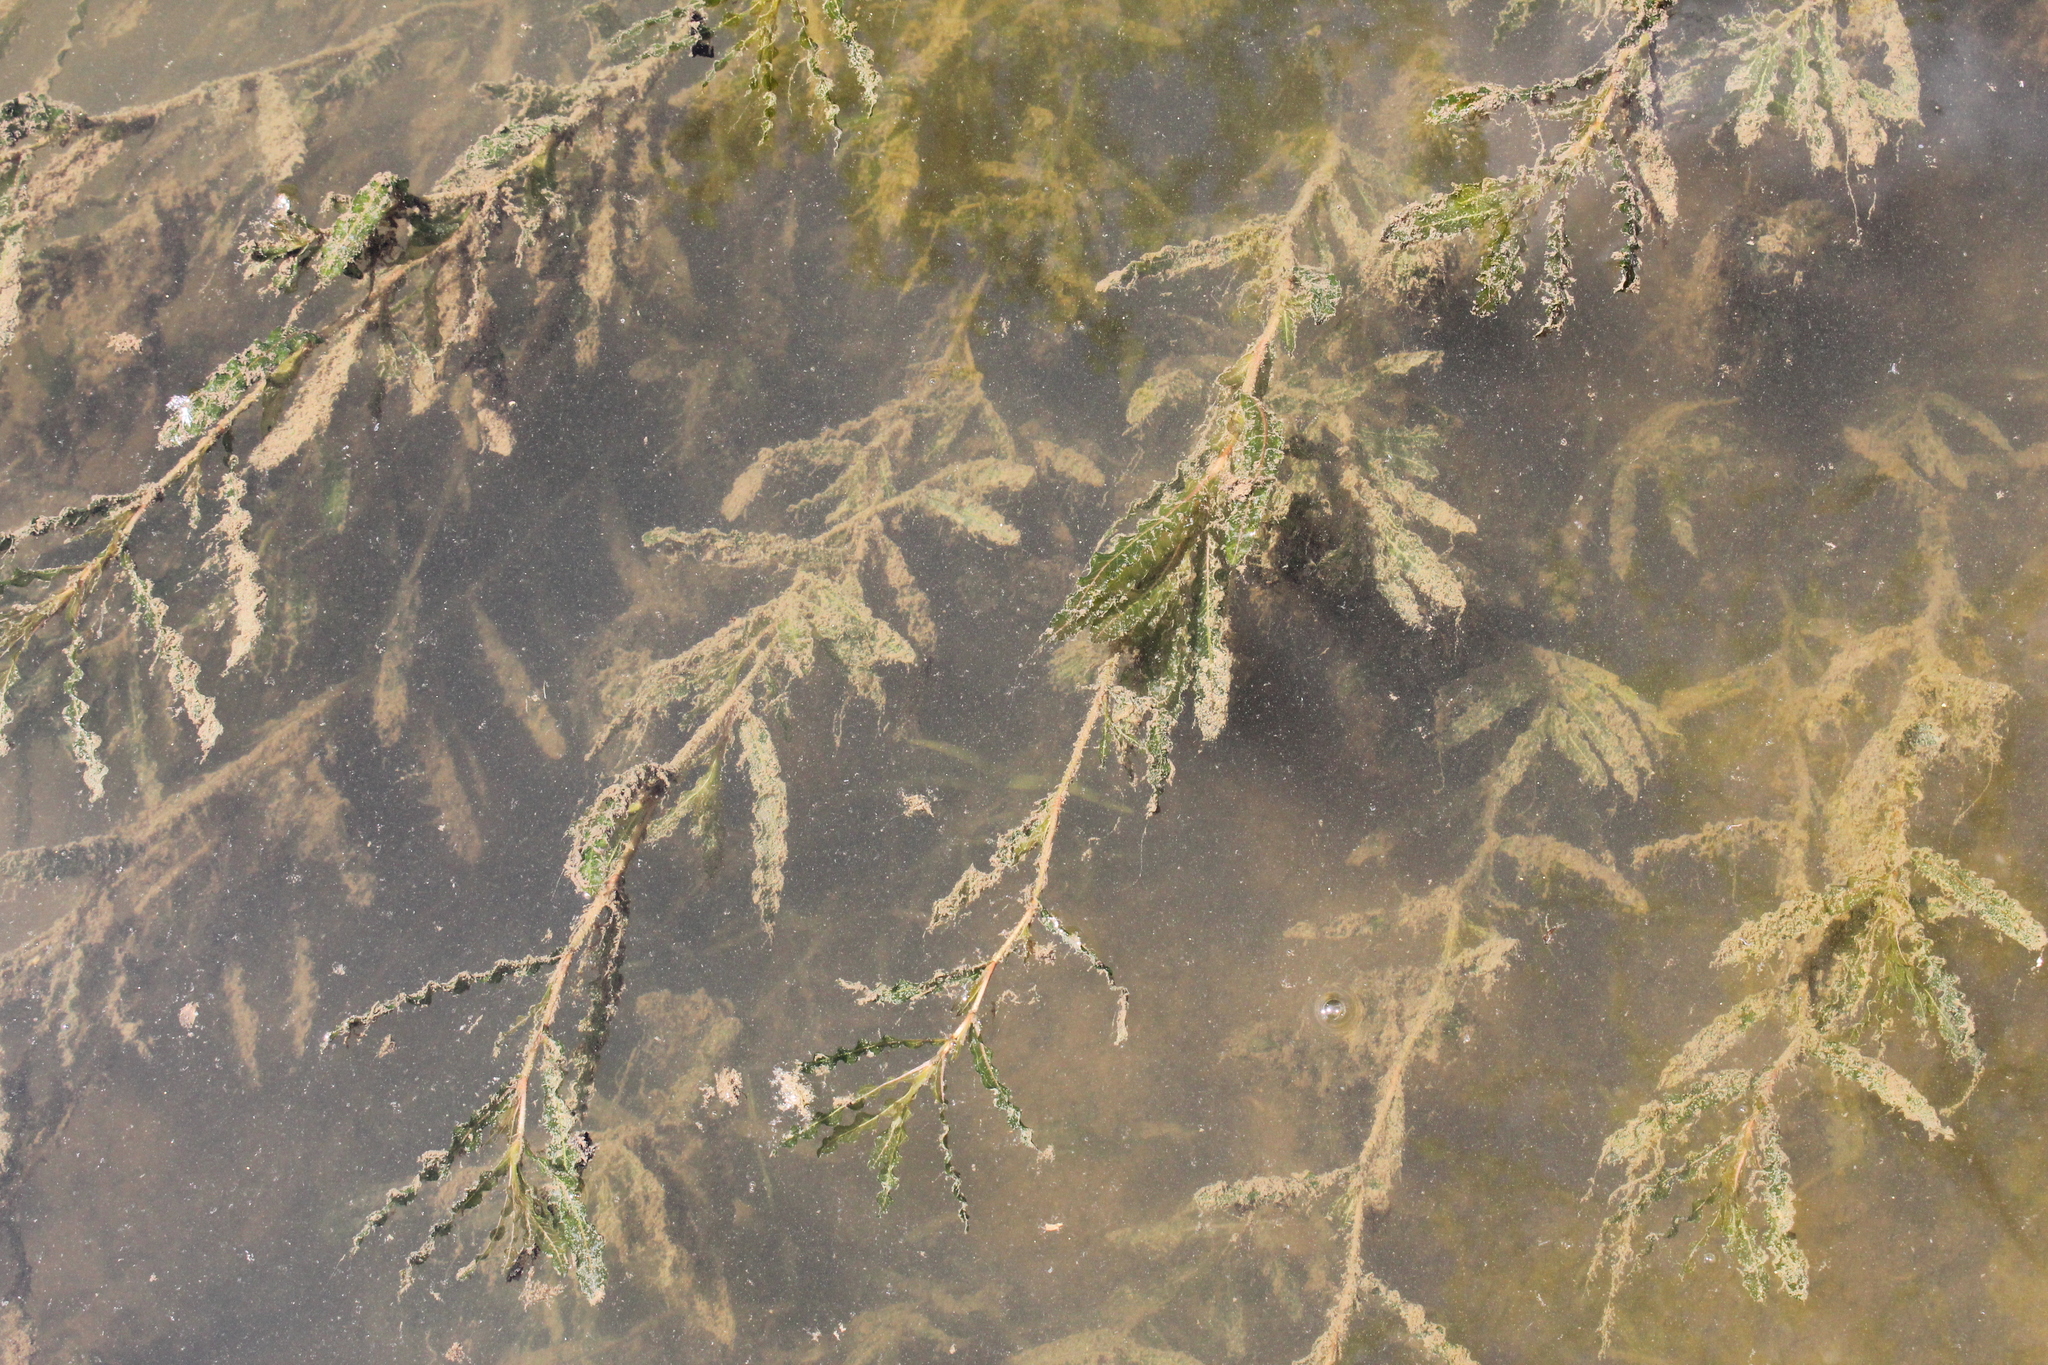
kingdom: Plantae
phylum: Tracheophyta
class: Liliopsida
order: Alismatales
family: Potamogetonaceae
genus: Potamogeton
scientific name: Potamogeton crispus
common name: Curled pondweed
